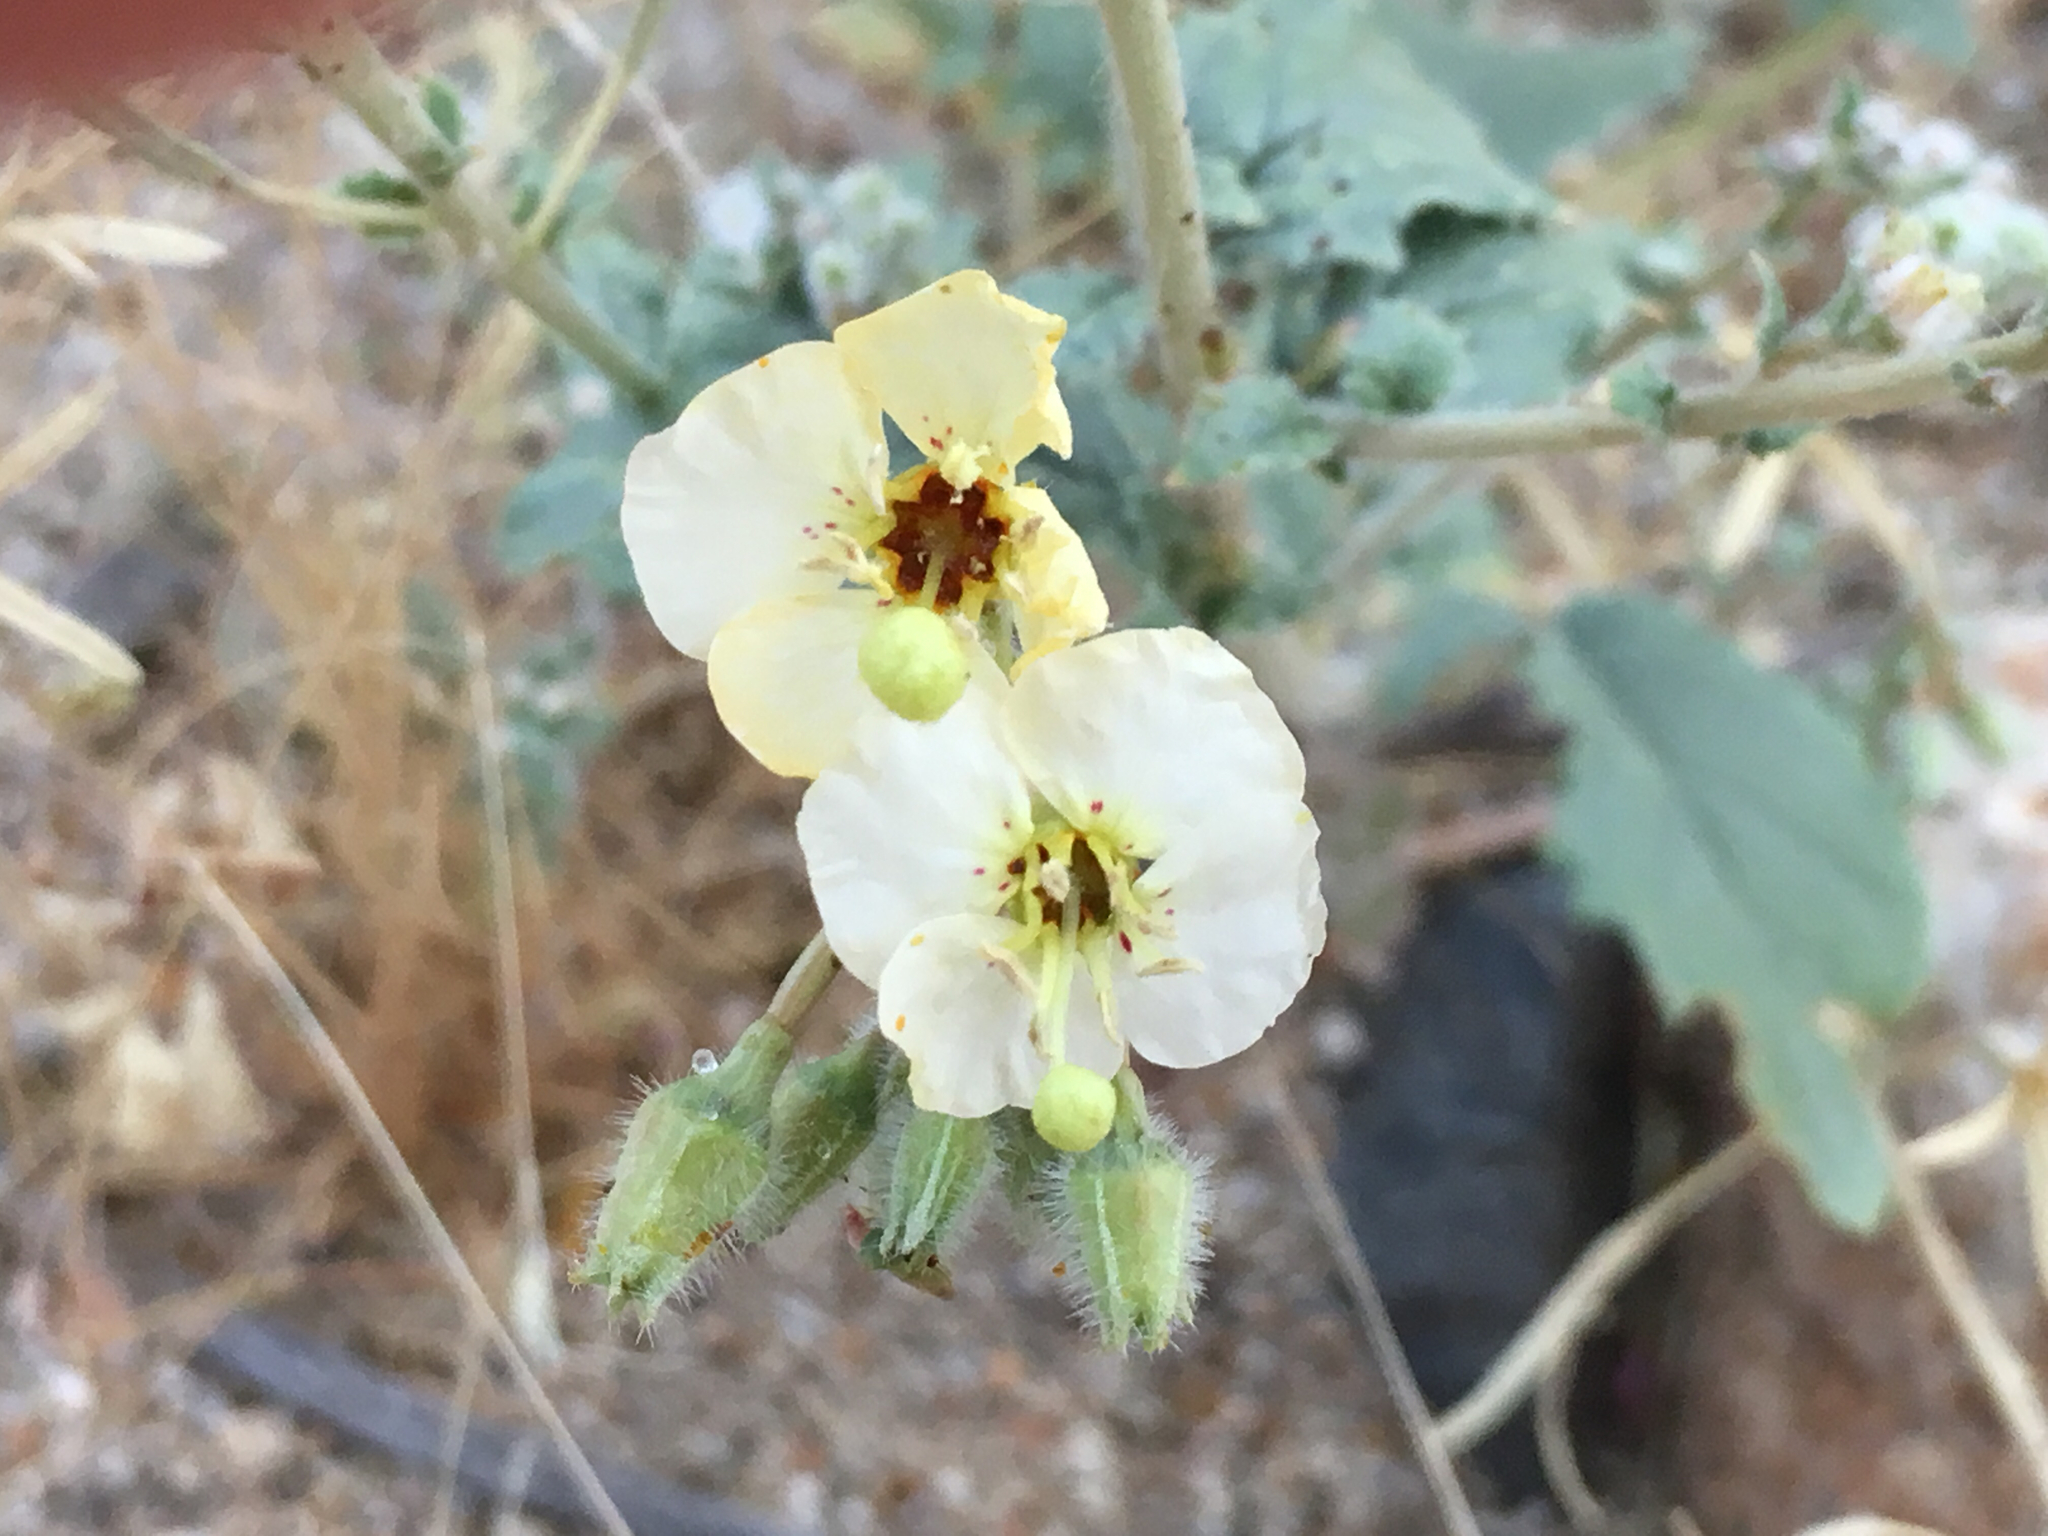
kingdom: Plantae
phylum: Tracheophyta
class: Magnoliopsida
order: Myrtales
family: Onagraceae
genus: Chylismia
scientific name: Chylismia claviformis
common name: Browneyes
